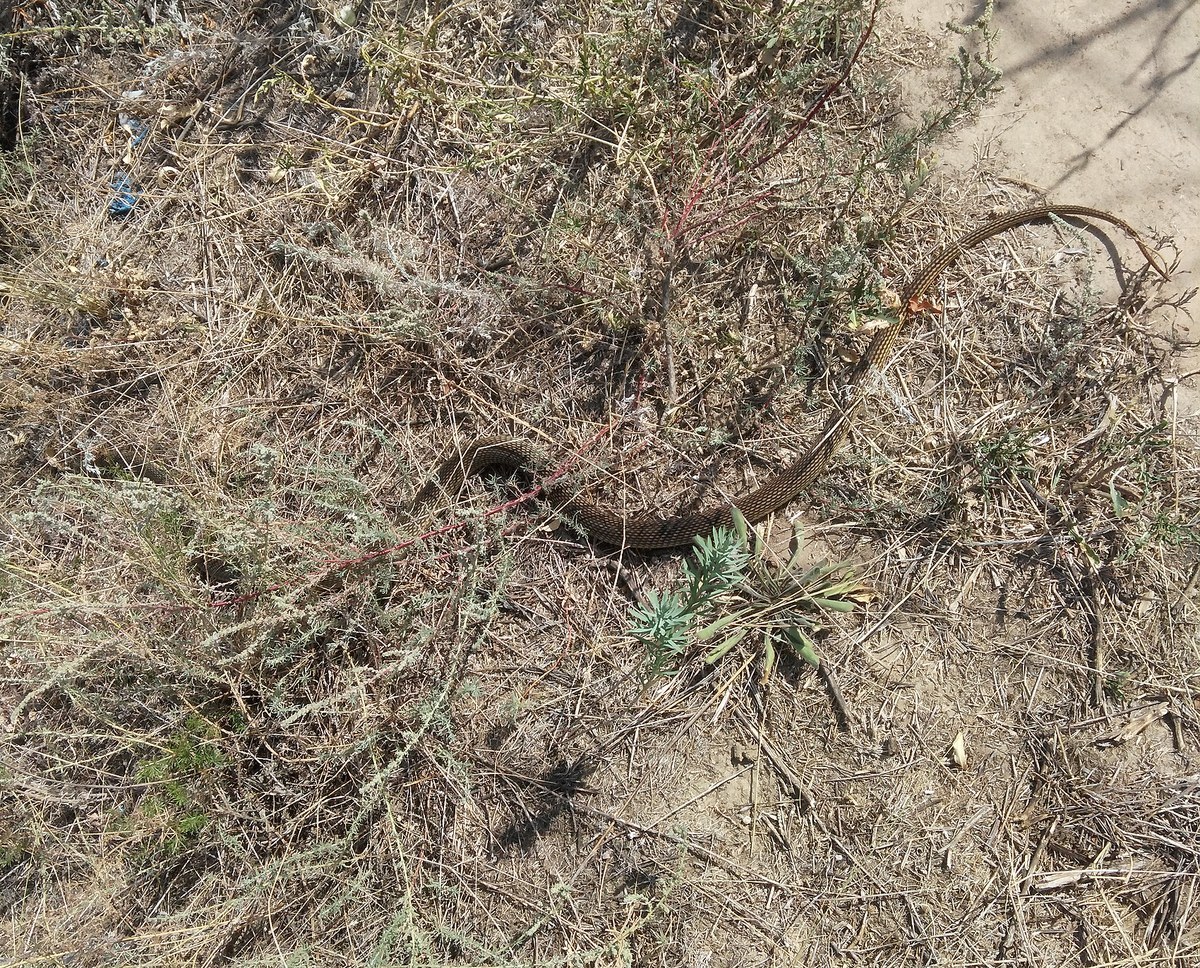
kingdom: Animalia
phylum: Chordata
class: Squamata
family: Colubridae
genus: Dolichophis
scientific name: Dolichophis caspius
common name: Large whip snake
